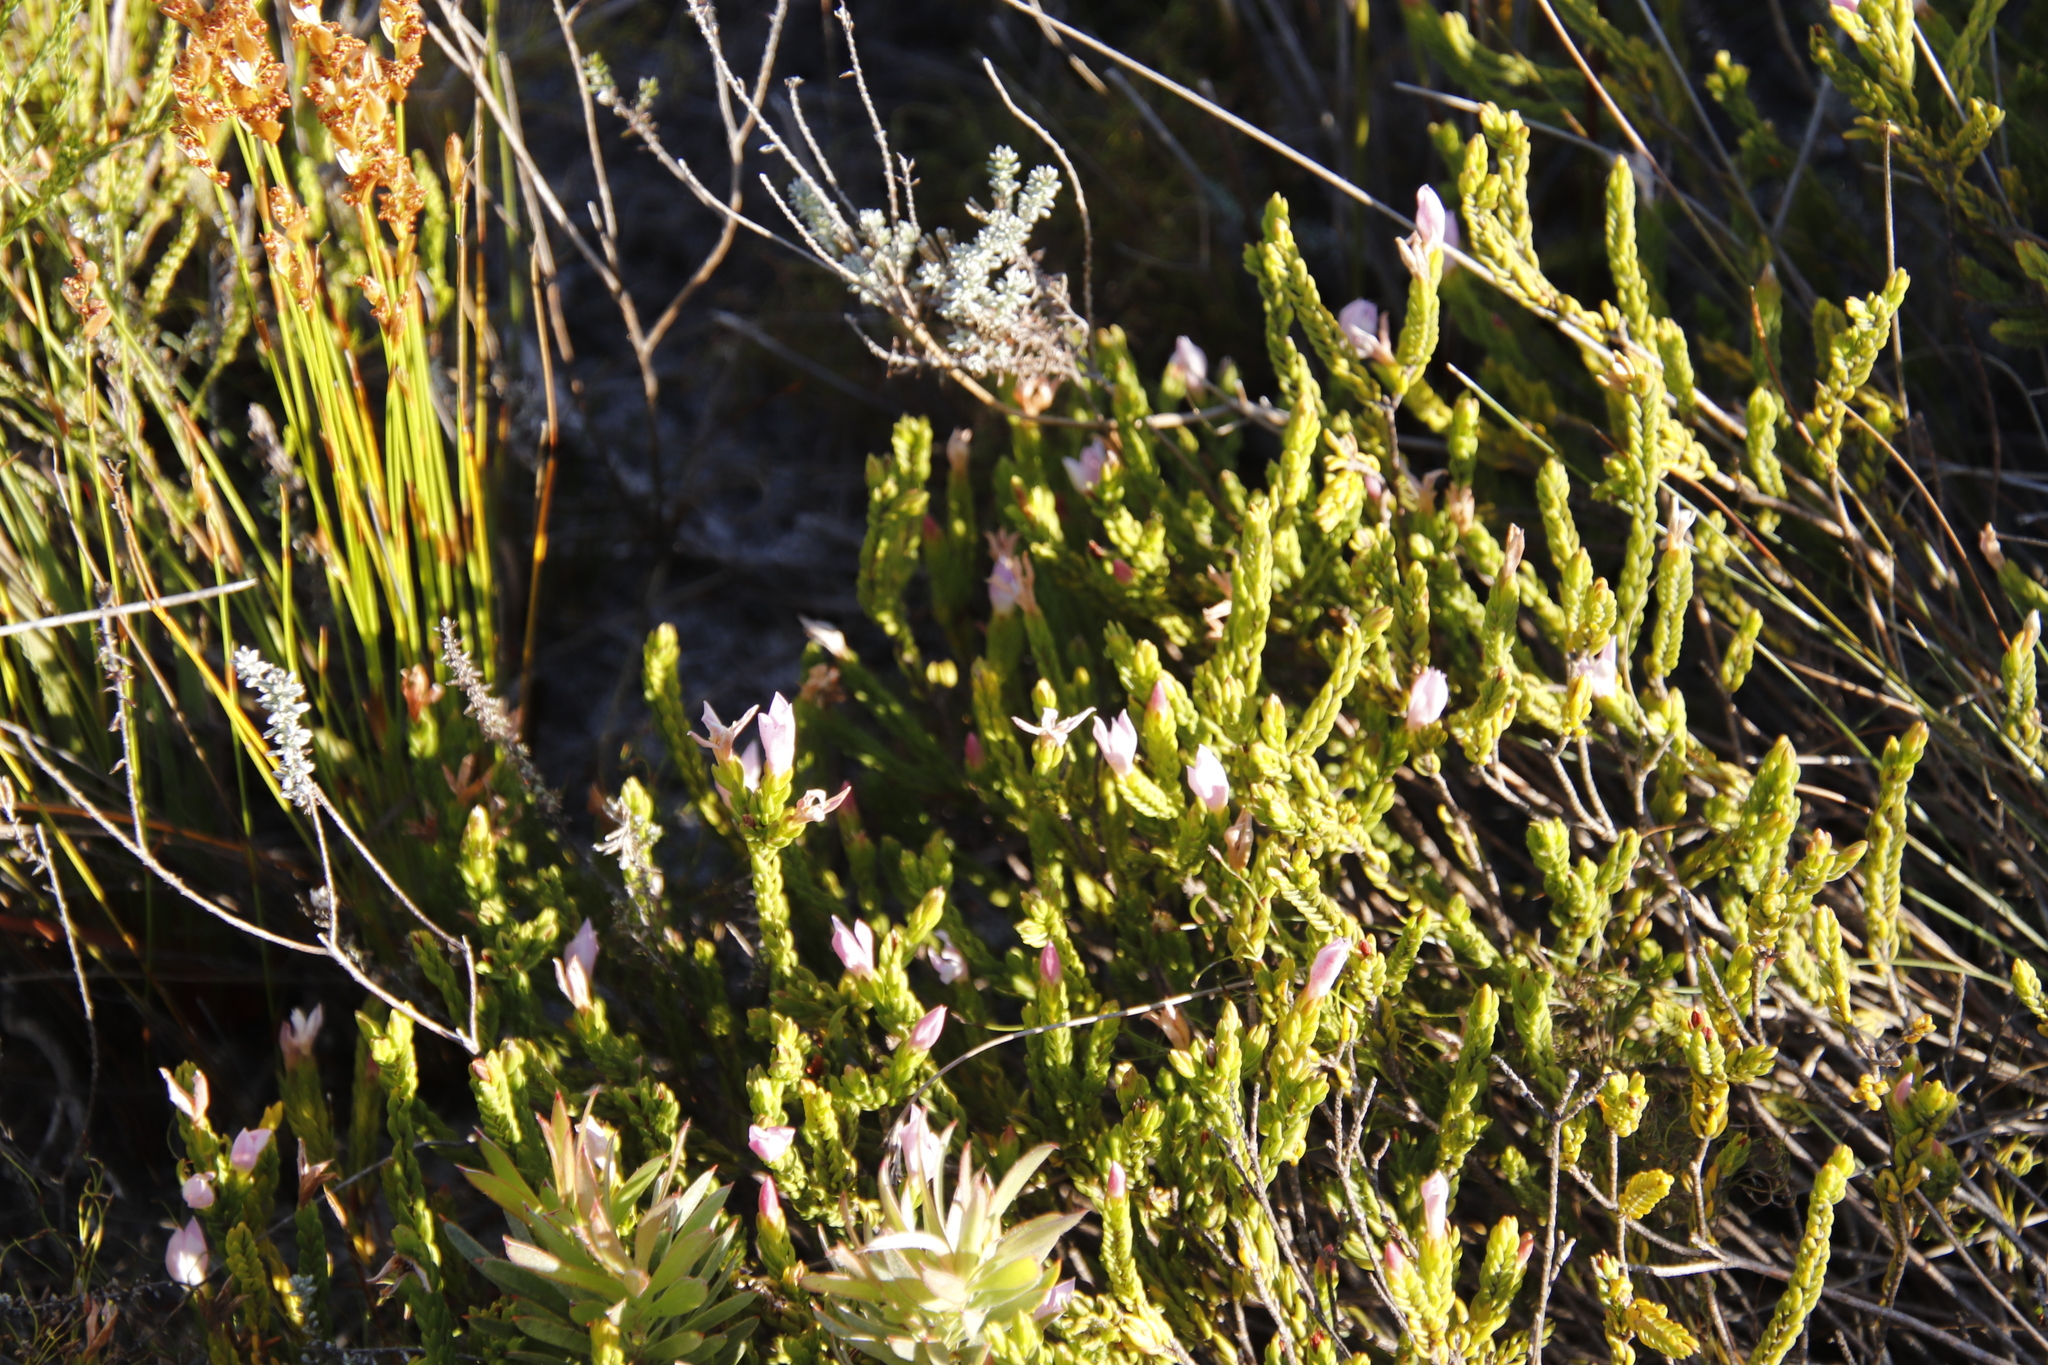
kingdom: Plantae
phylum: Tracheophyta
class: Magnoliopsida
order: Malvales
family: Thymelaeaceae
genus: Lachnaea
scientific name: Lachnaea grandiflora
